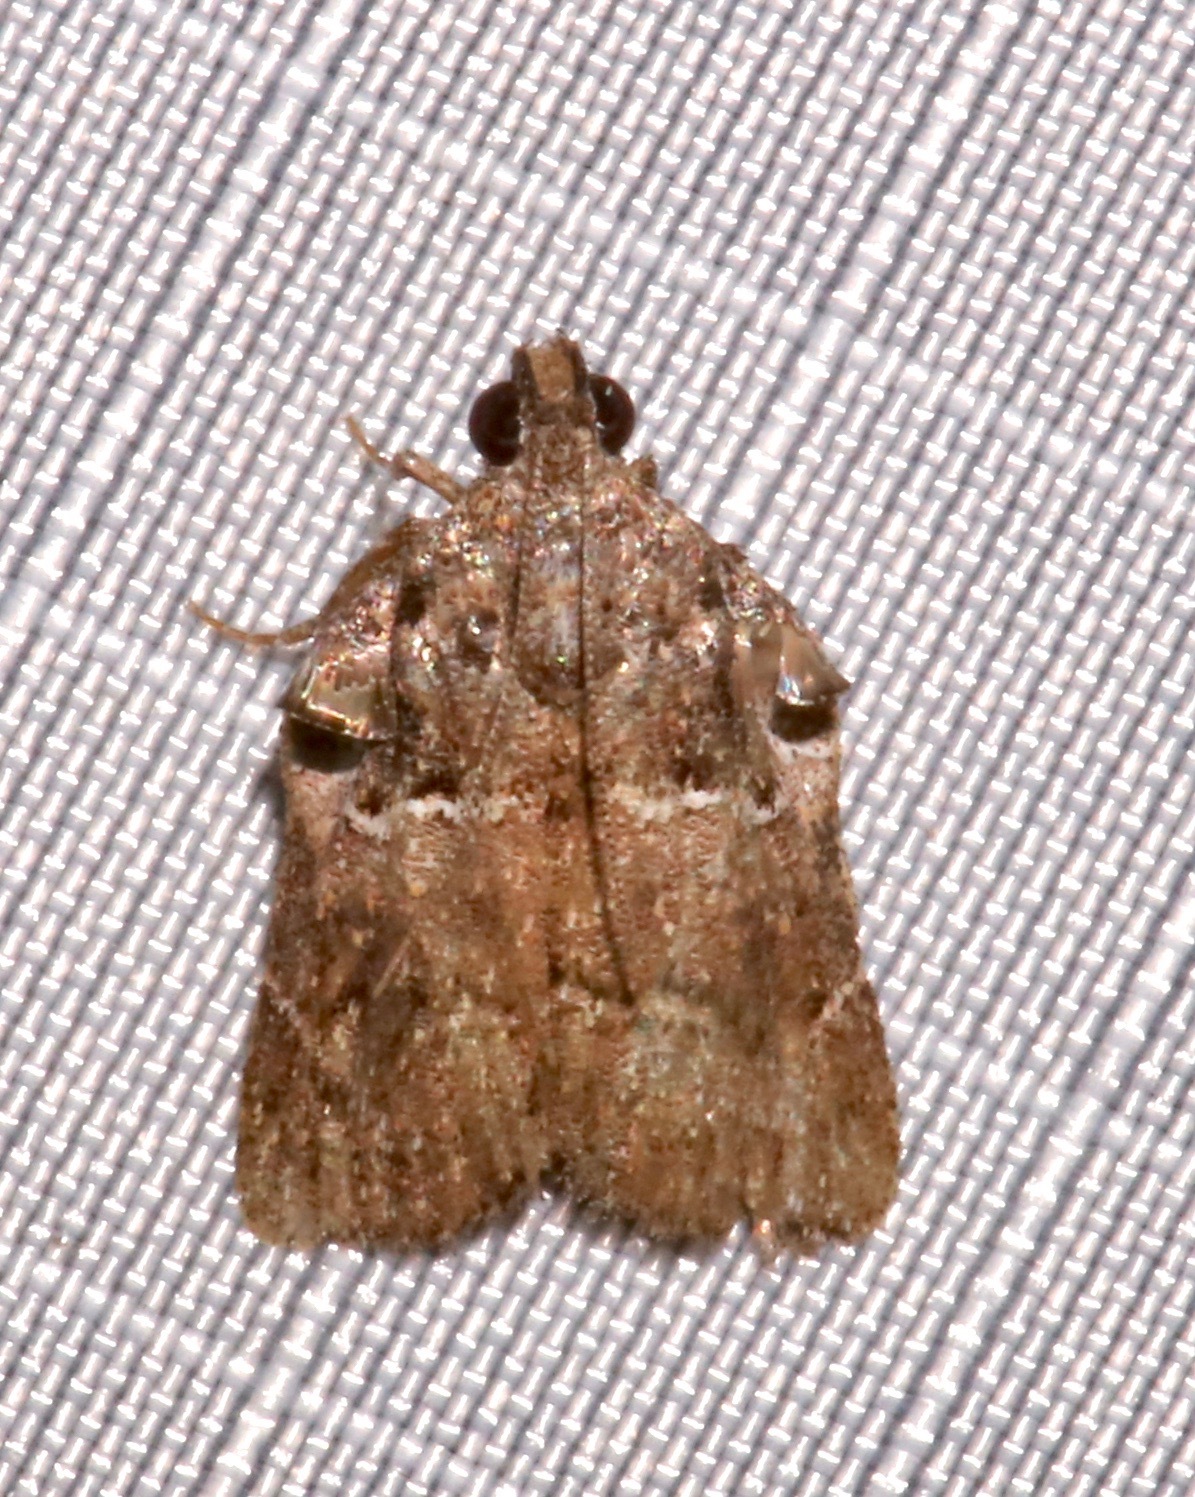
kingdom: Animalia
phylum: Arthropoda
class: Insecta
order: Lepidoptera
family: Pyralidae
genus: Satole
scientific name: Satole ligniperdalis
